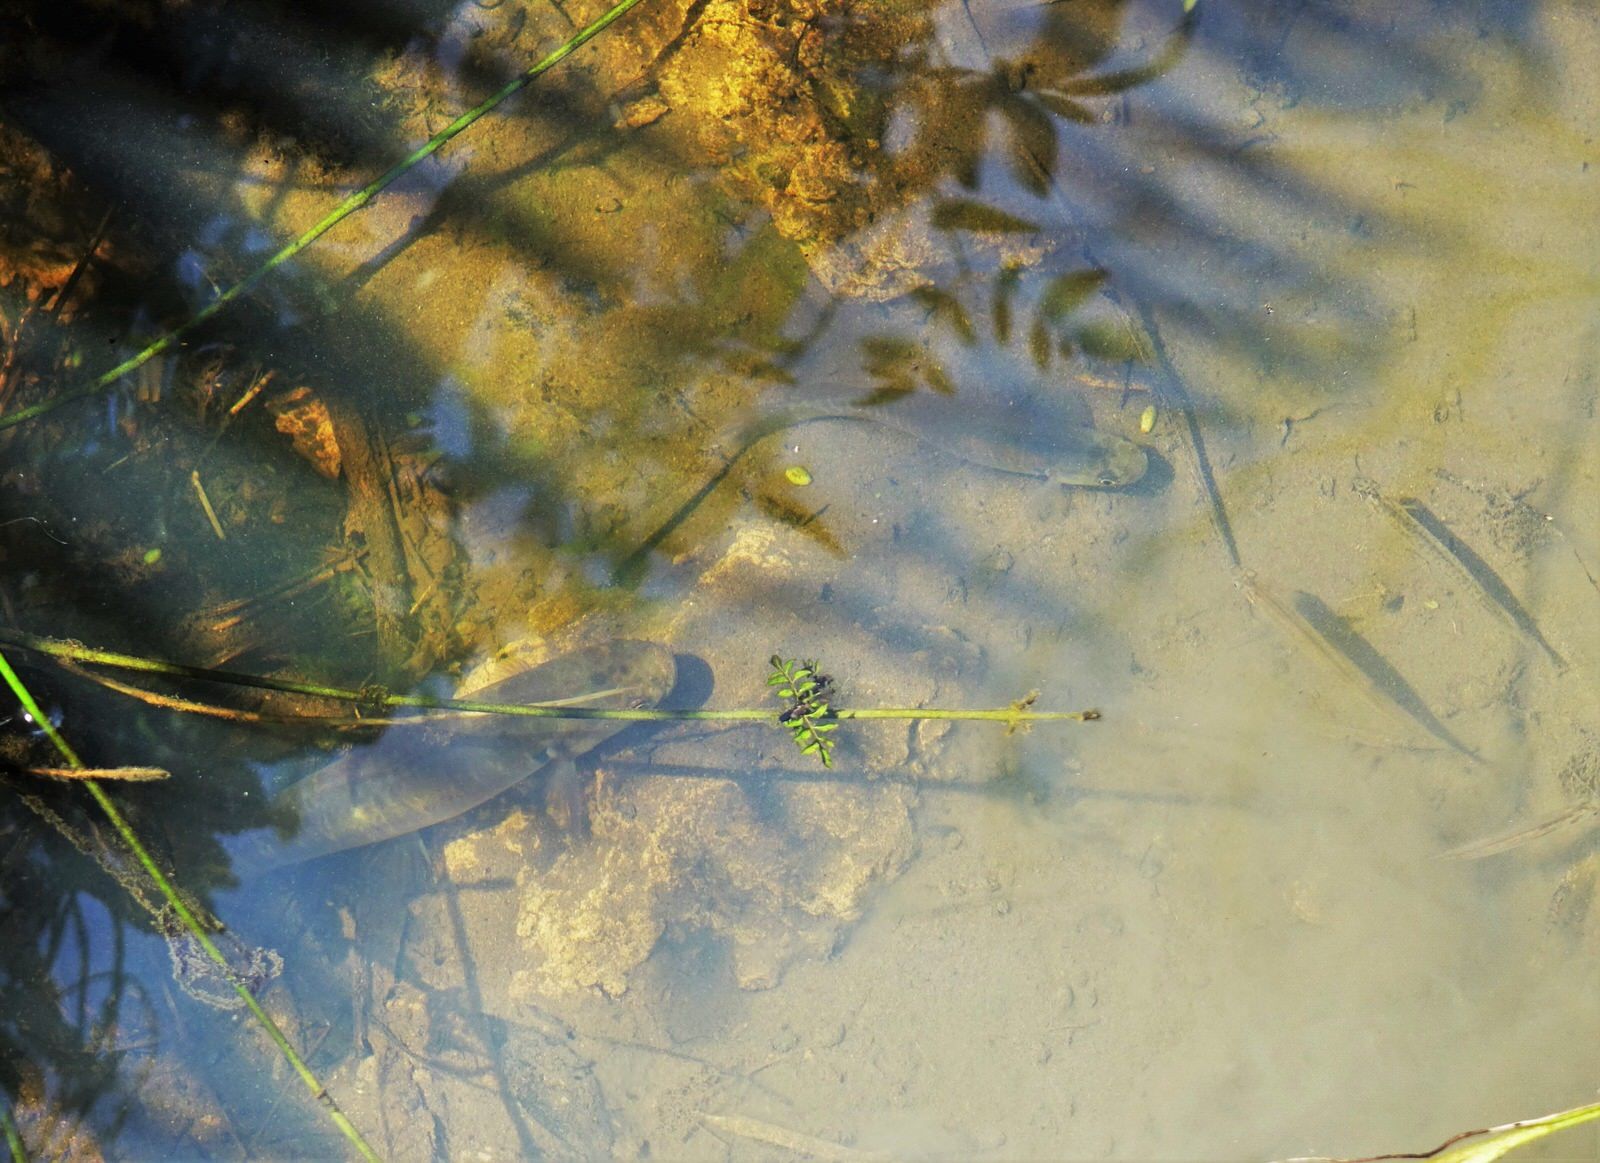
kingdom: Animalia
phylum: Chordata
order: Osmeriformes
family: Galaxiidae
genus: Galaxias
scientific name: Galaxias fasciatus
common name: Banded kokopu
